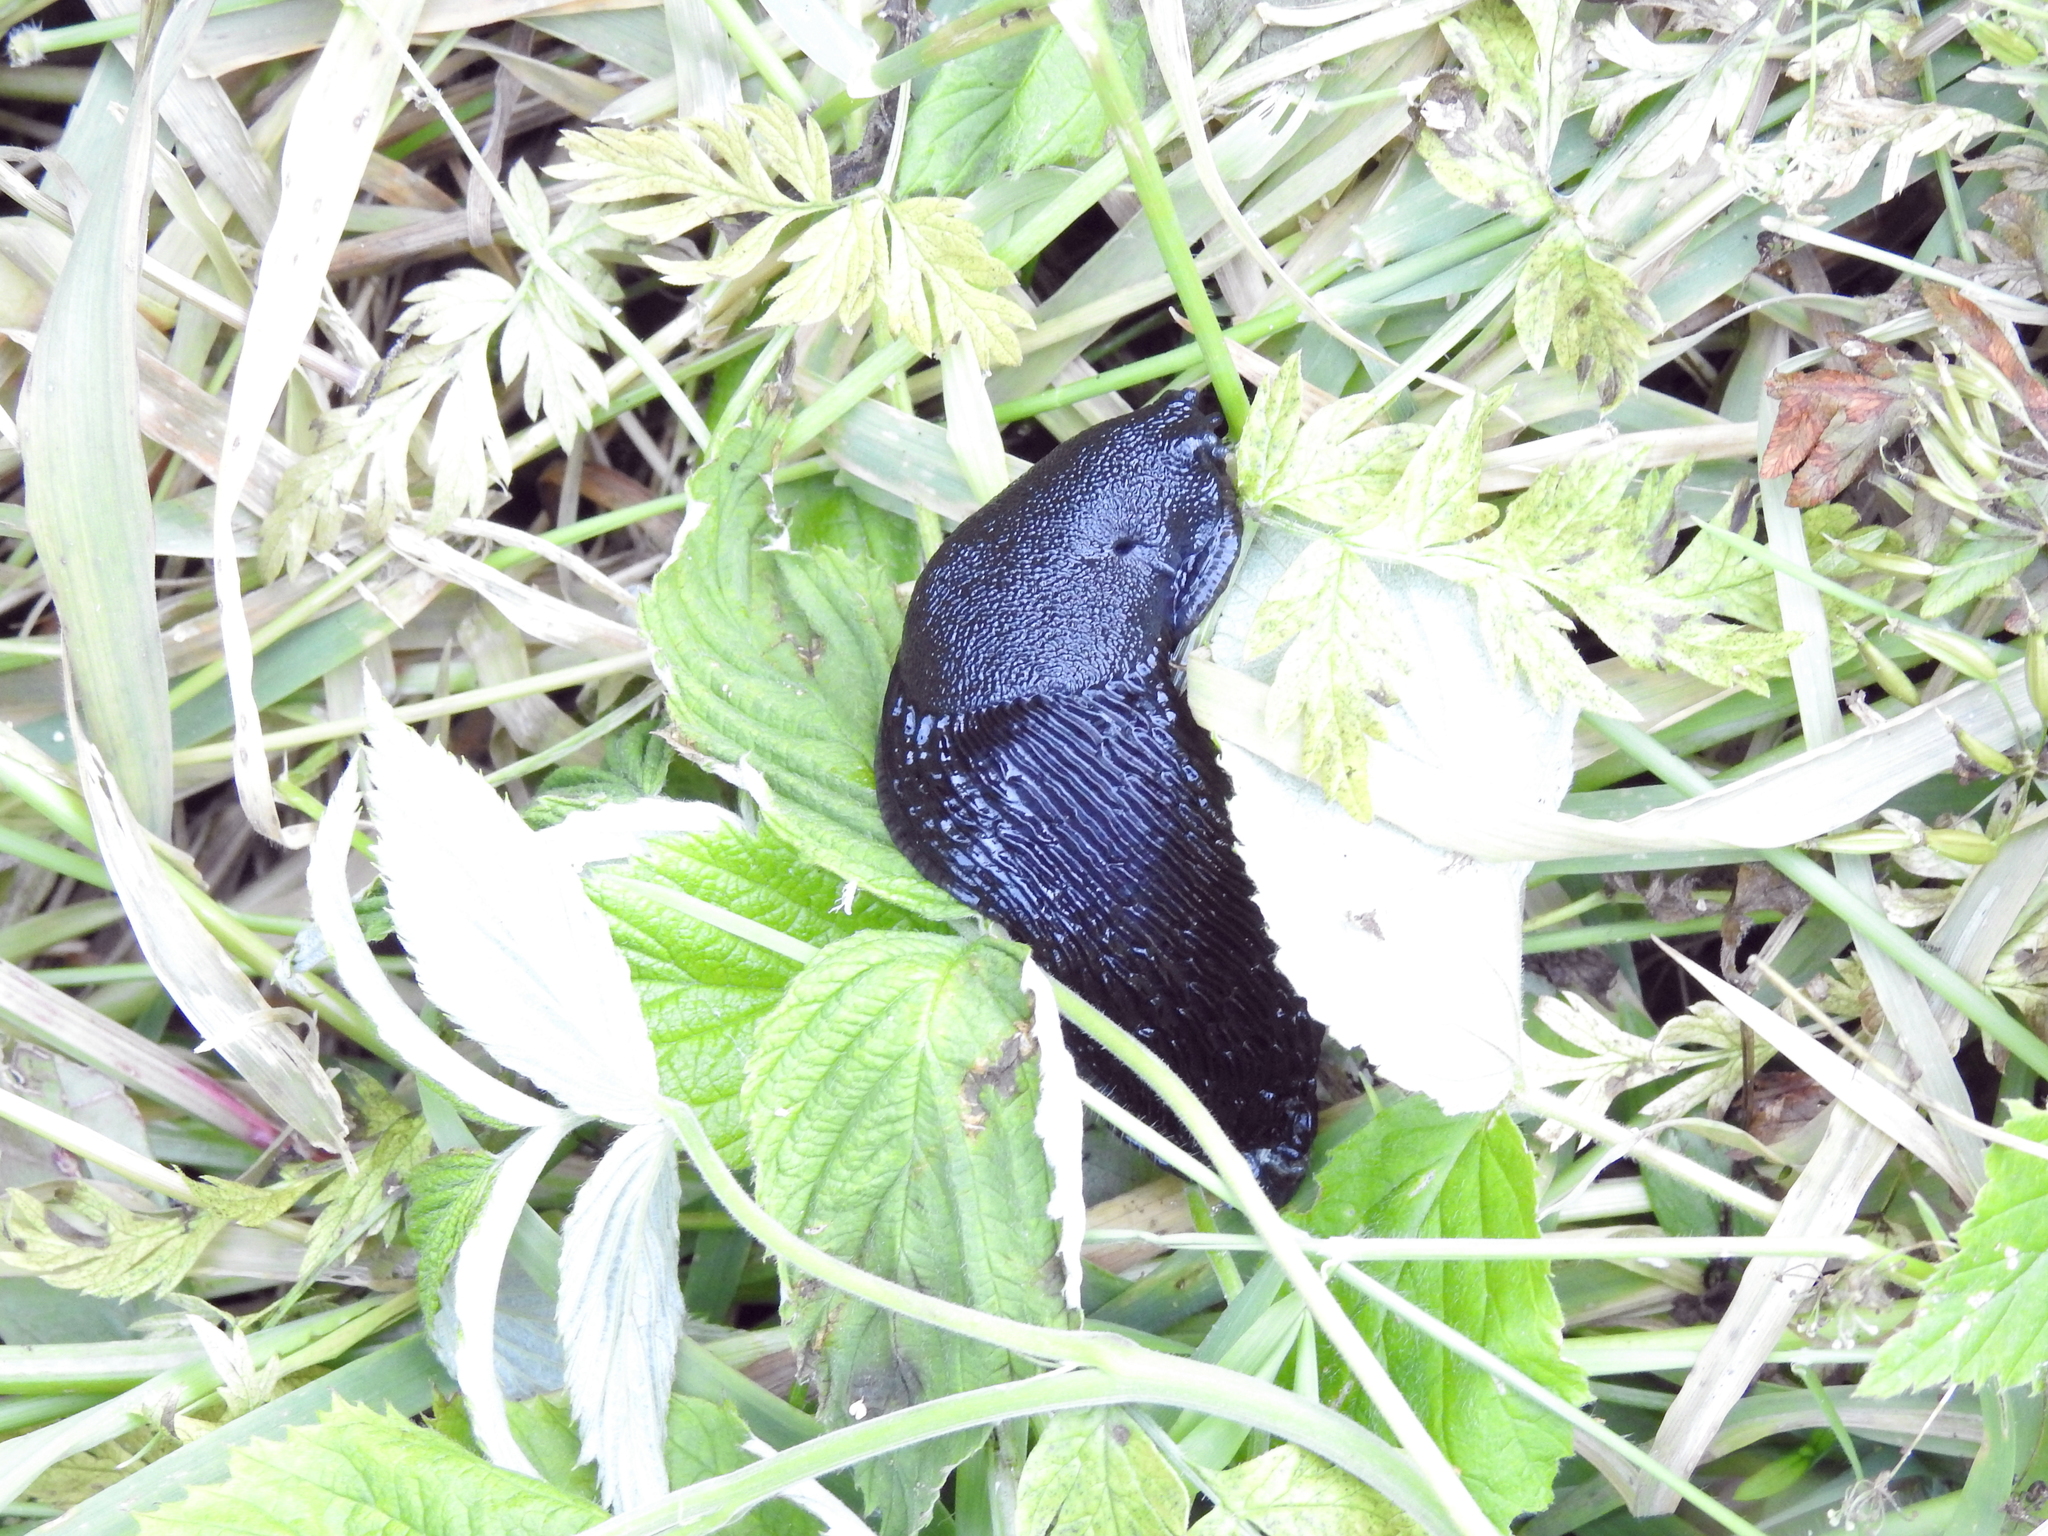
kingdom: Animalia
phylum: Mollusca
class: Gastropoda
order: Stylommatophora
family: Arionidae
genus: Arion
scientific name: Arion ater
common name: Black arion
